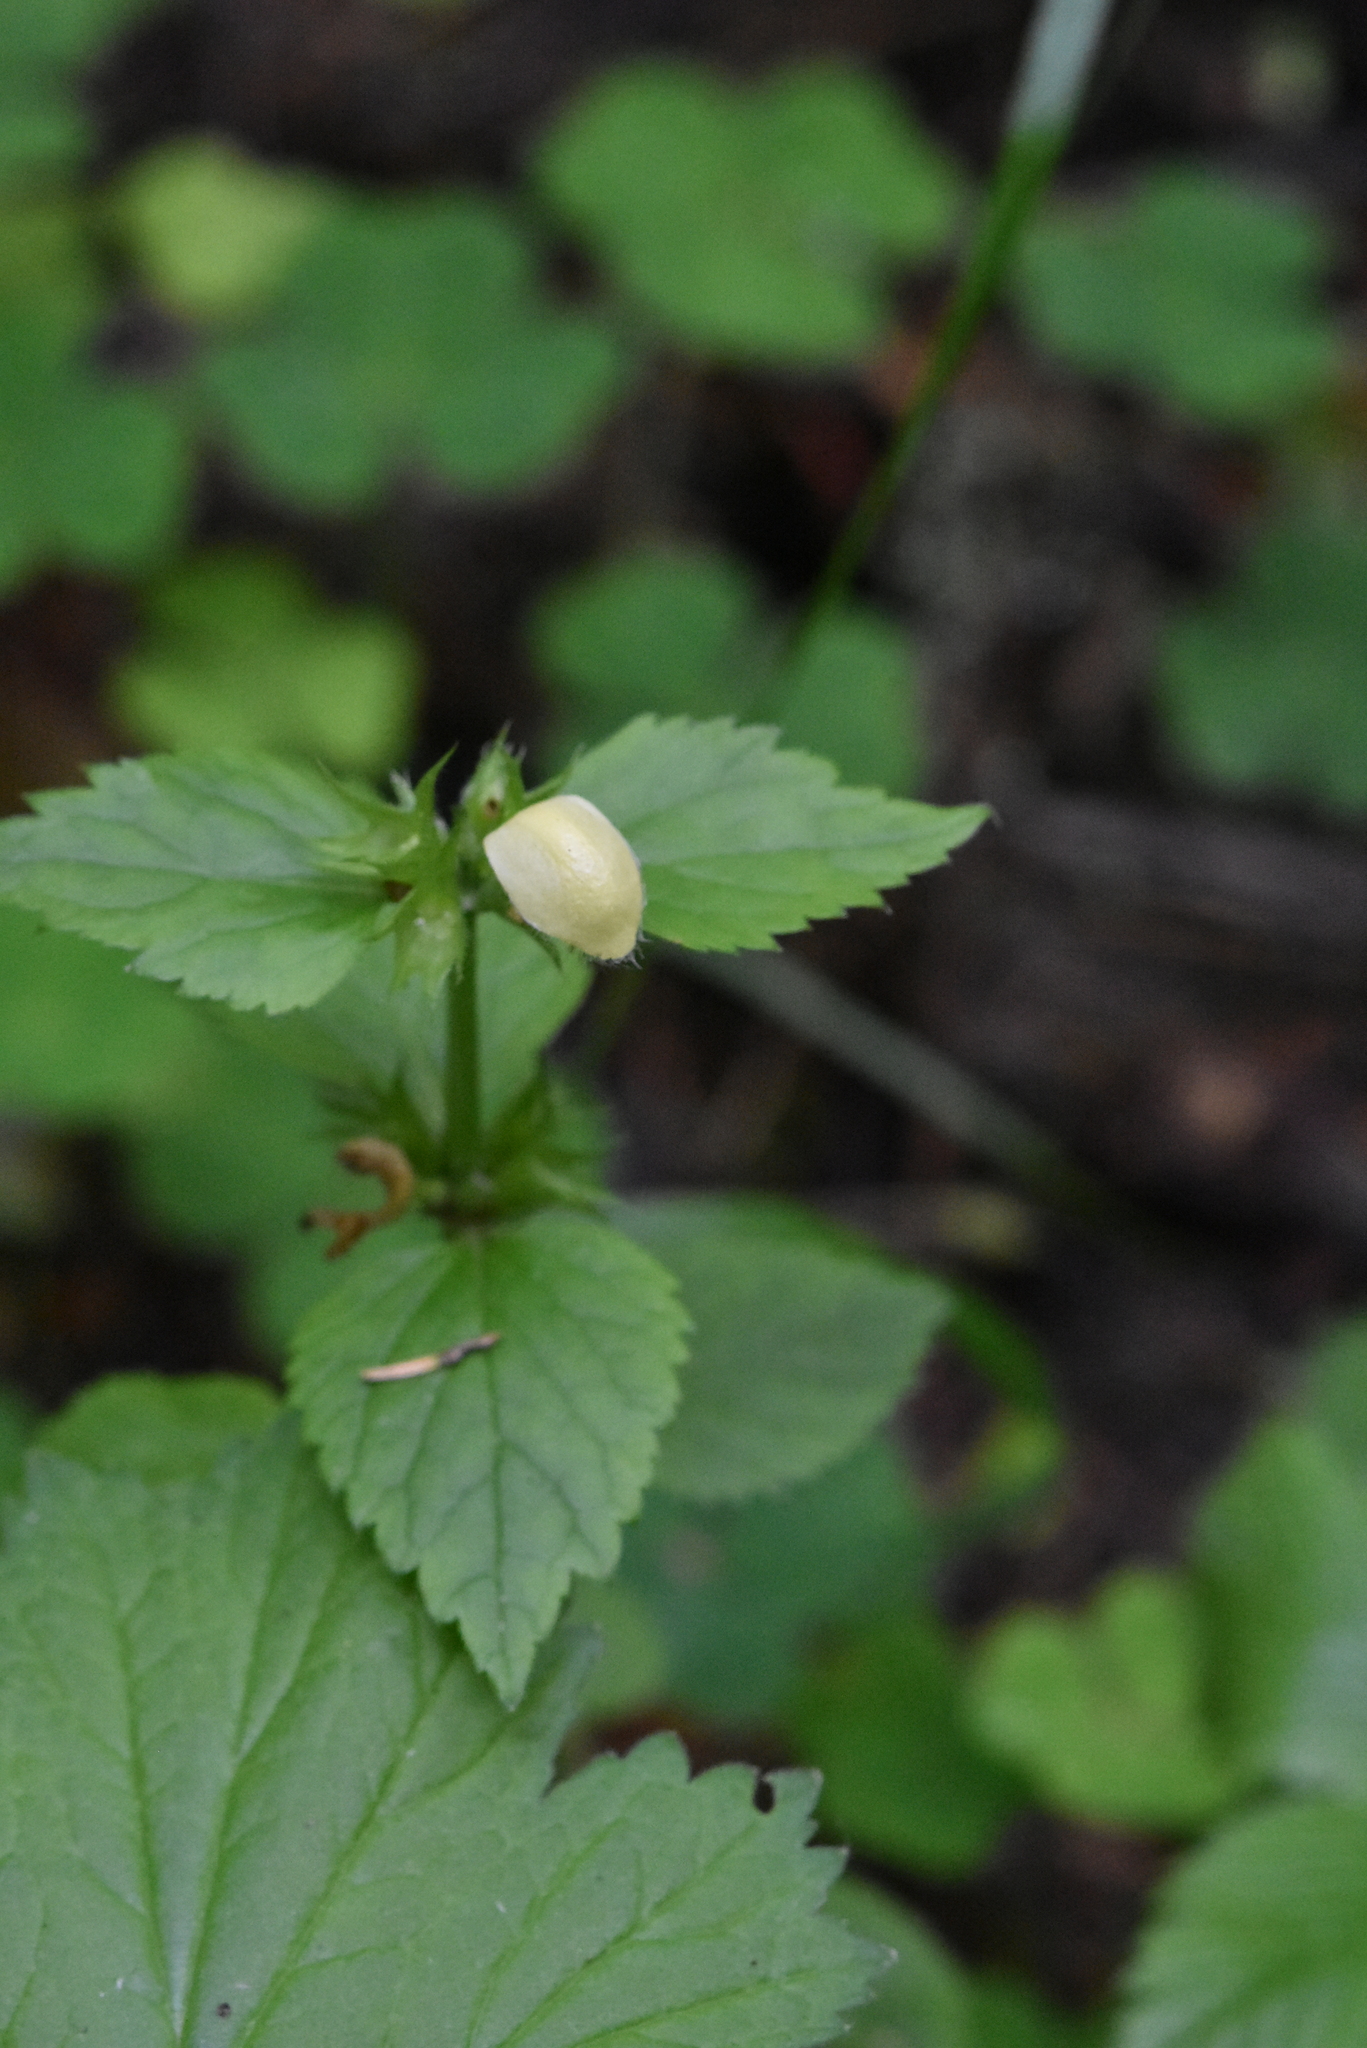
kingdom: Plantae
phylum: Tracheophyta
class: Magnoliopsida
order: Lamiales
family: Lamiaceae
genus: Lamium
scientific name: Lamium galeobdolon
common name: Yellow archangel
